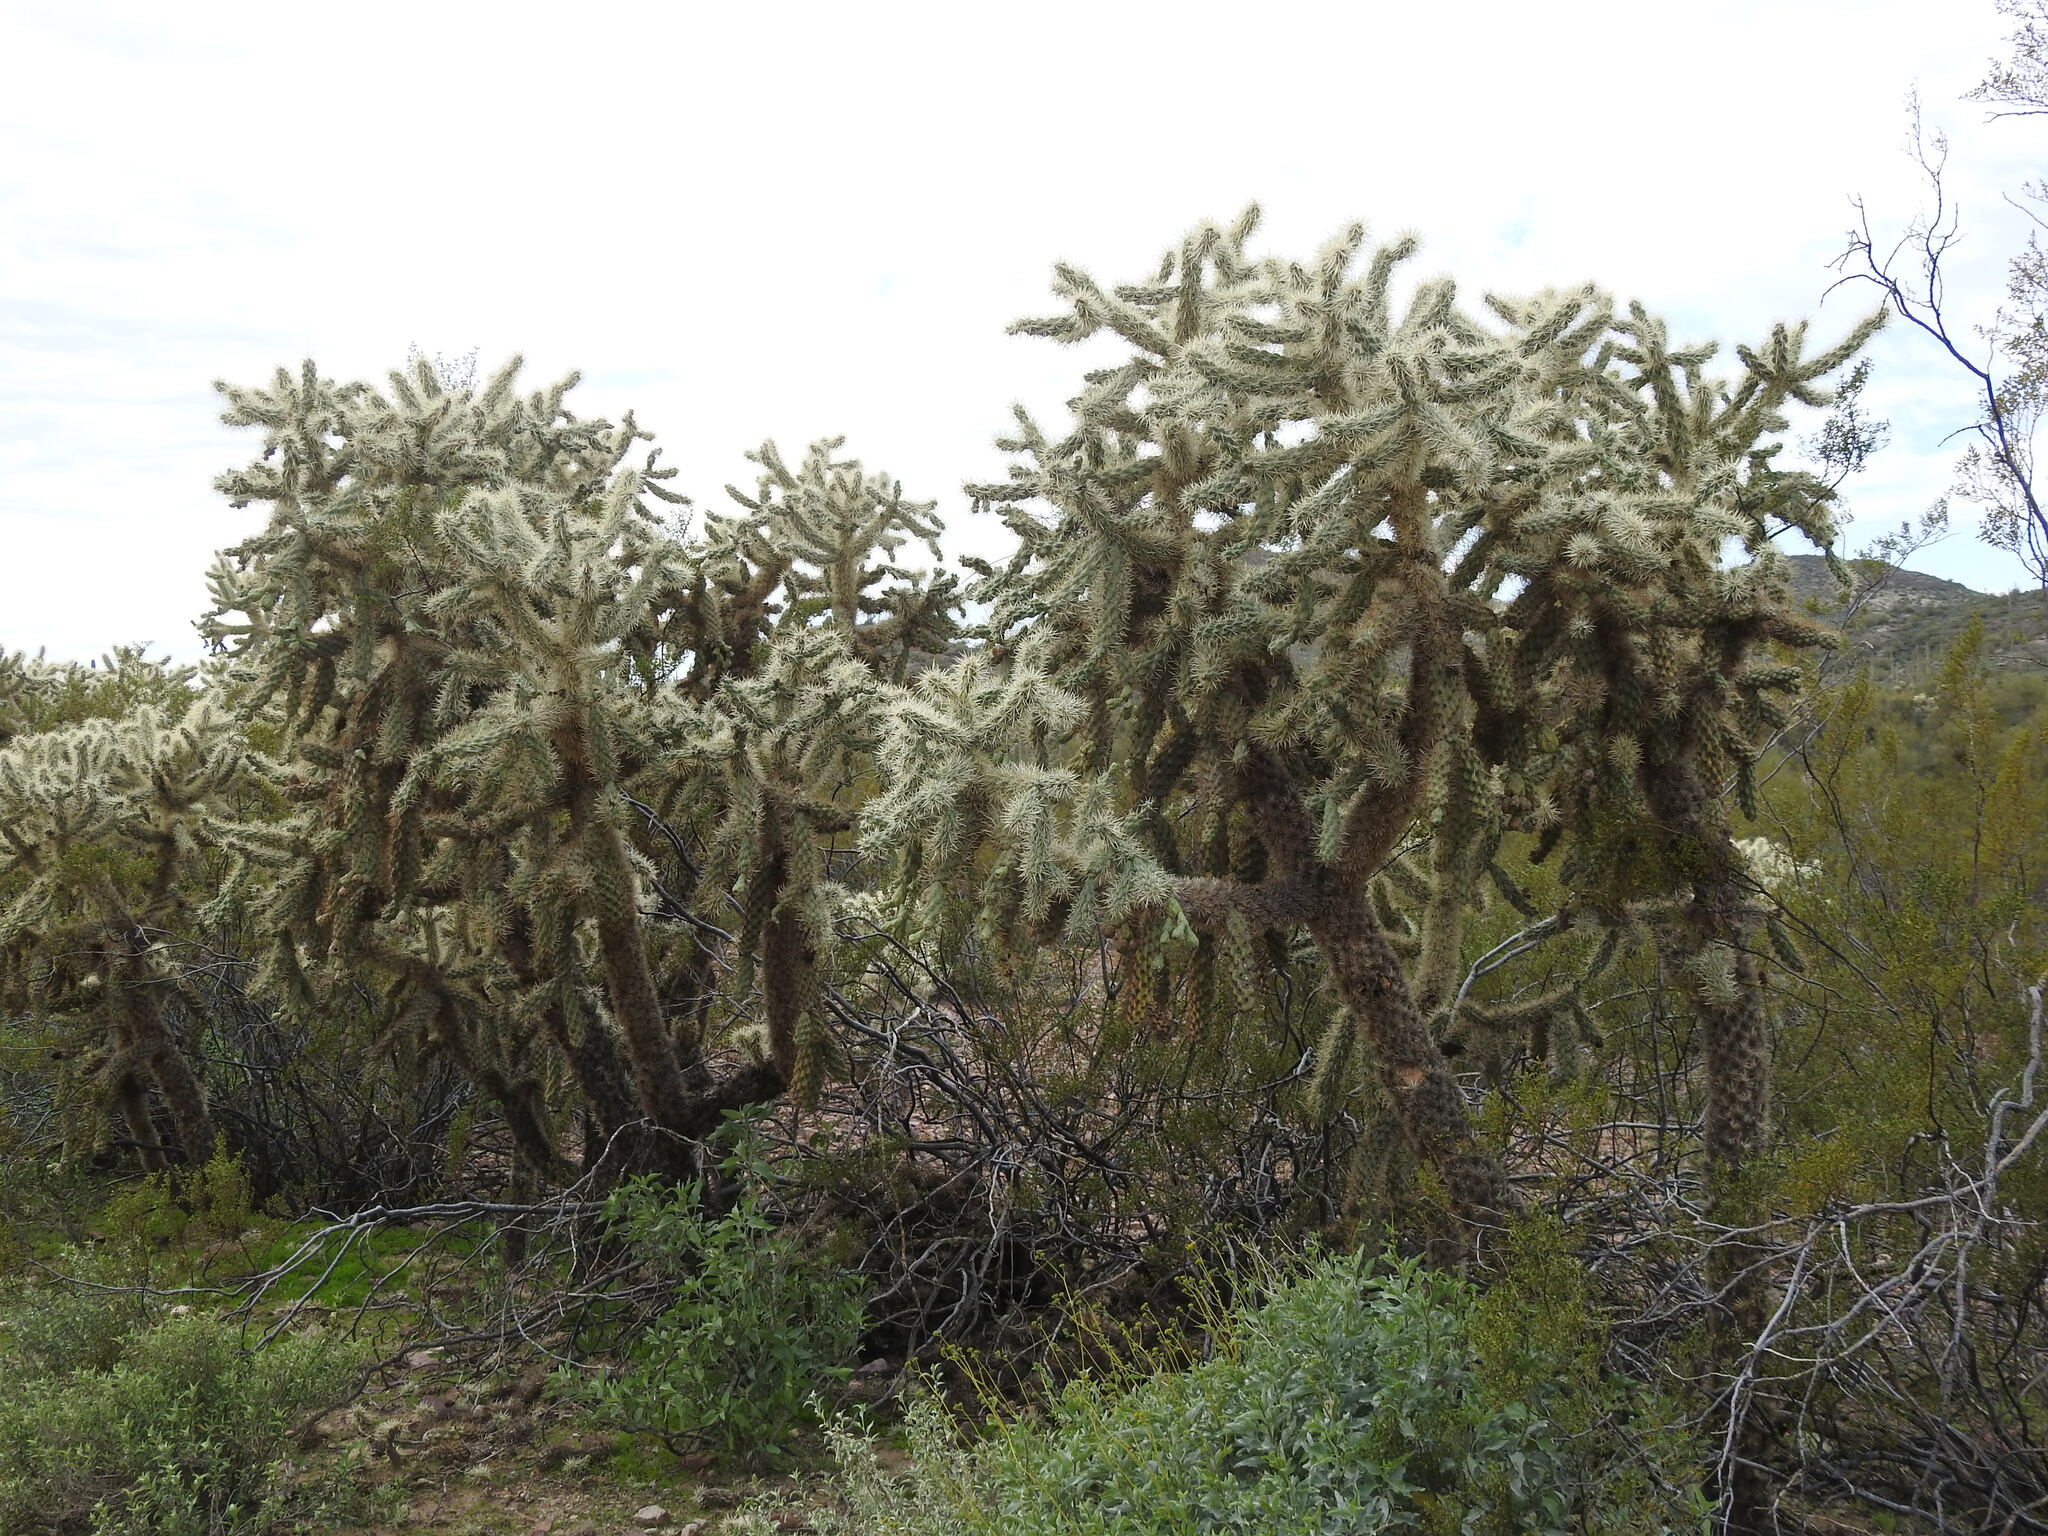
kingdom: Plantae
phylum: Tracheophyta
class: Magnoliopsida
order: Caryophyllales
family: Cactaceae
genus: Cylindropuntia
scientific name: Cylindropuntia fulgida
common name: Jumping cholla
